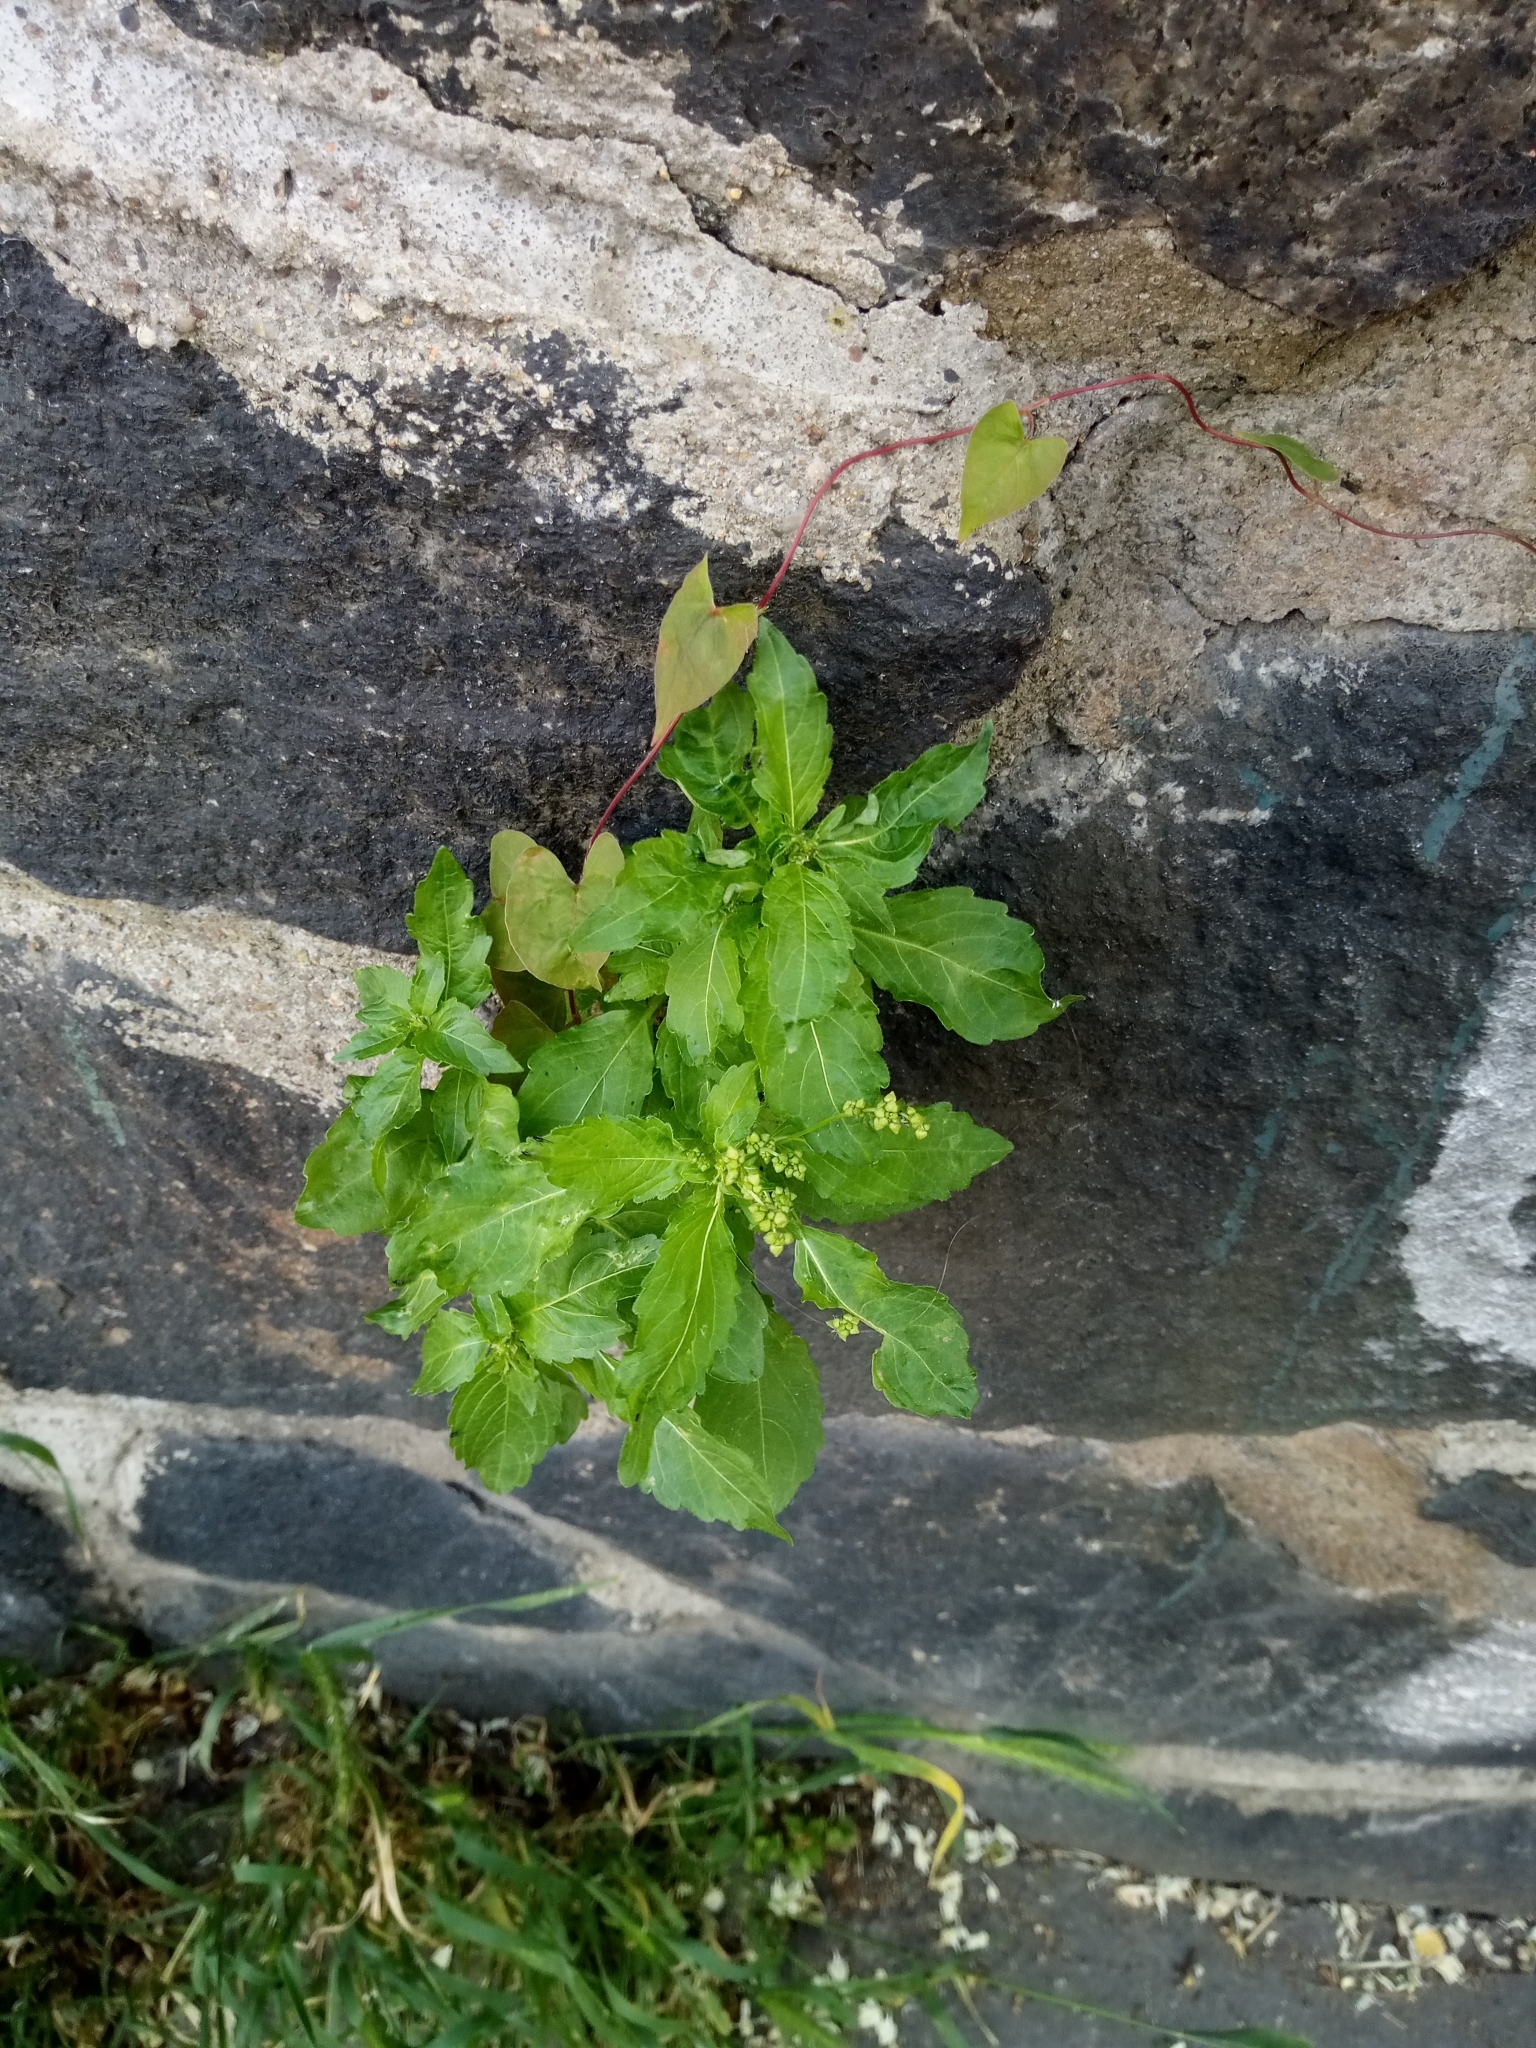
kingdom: Plantae
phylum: Tracheophyta
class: Magnoliopsida
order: Malpighiales
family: Euphorbiaceae
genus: Mercurialis
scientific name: Mercurialis annua
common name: Annual mercury
